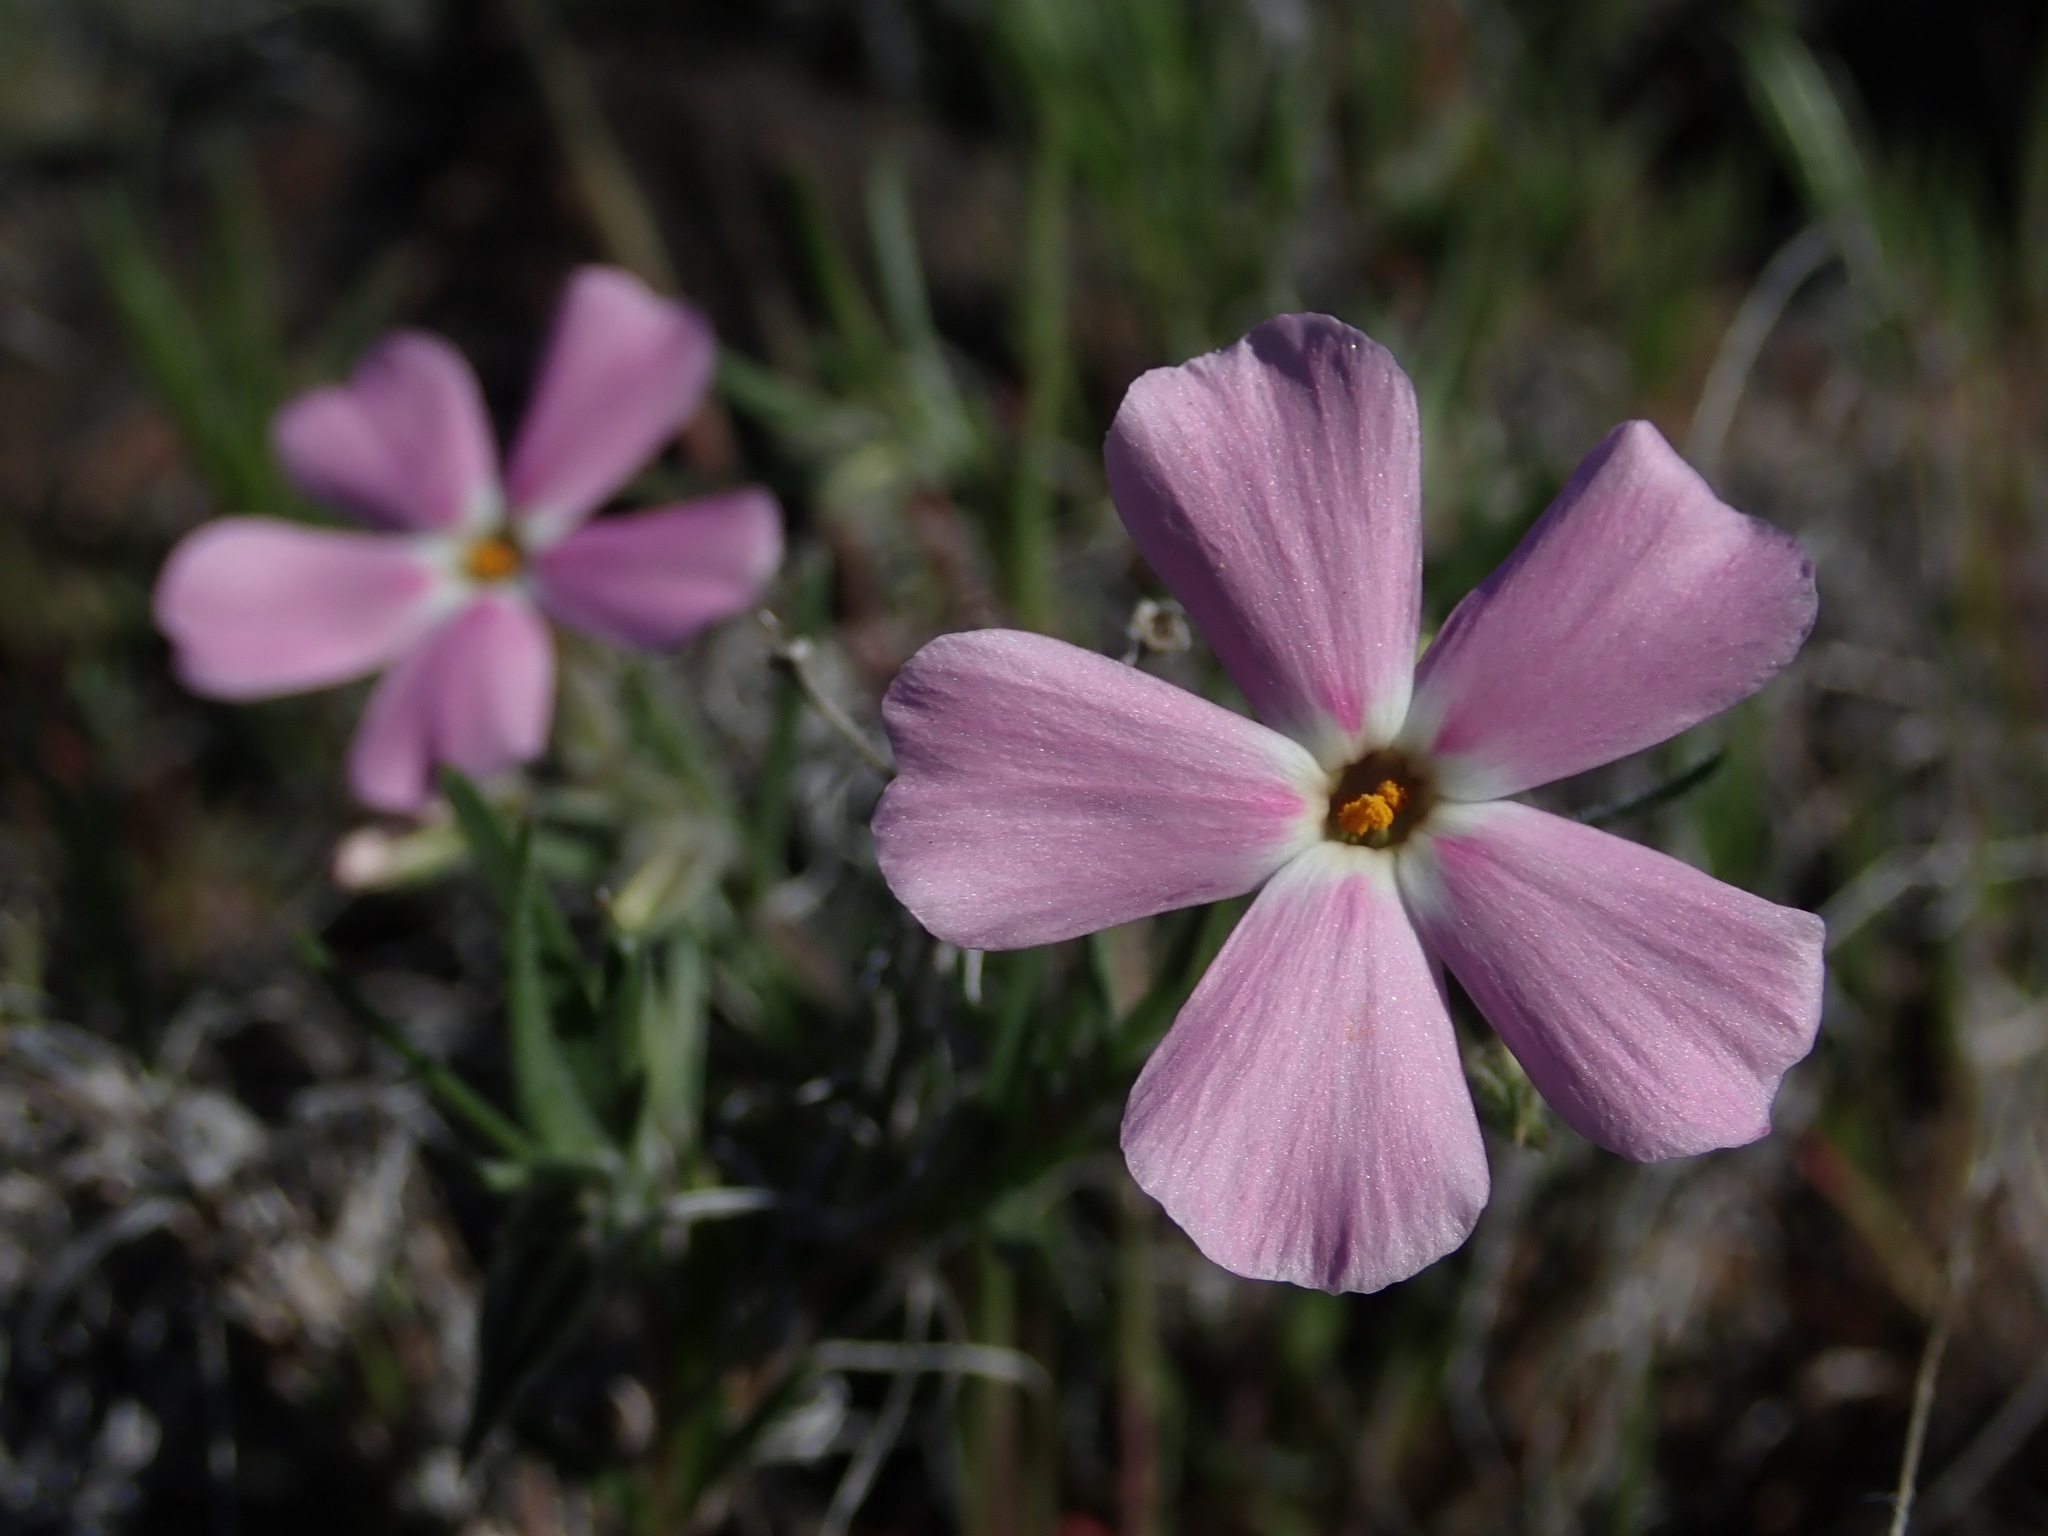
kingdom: Plantae
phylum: Tracheophyta
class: Magnoliopsida
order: Ericales
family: Polemoniaceae
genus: Phlox
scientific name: Phlox longifolia
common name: Longleaf phlox
